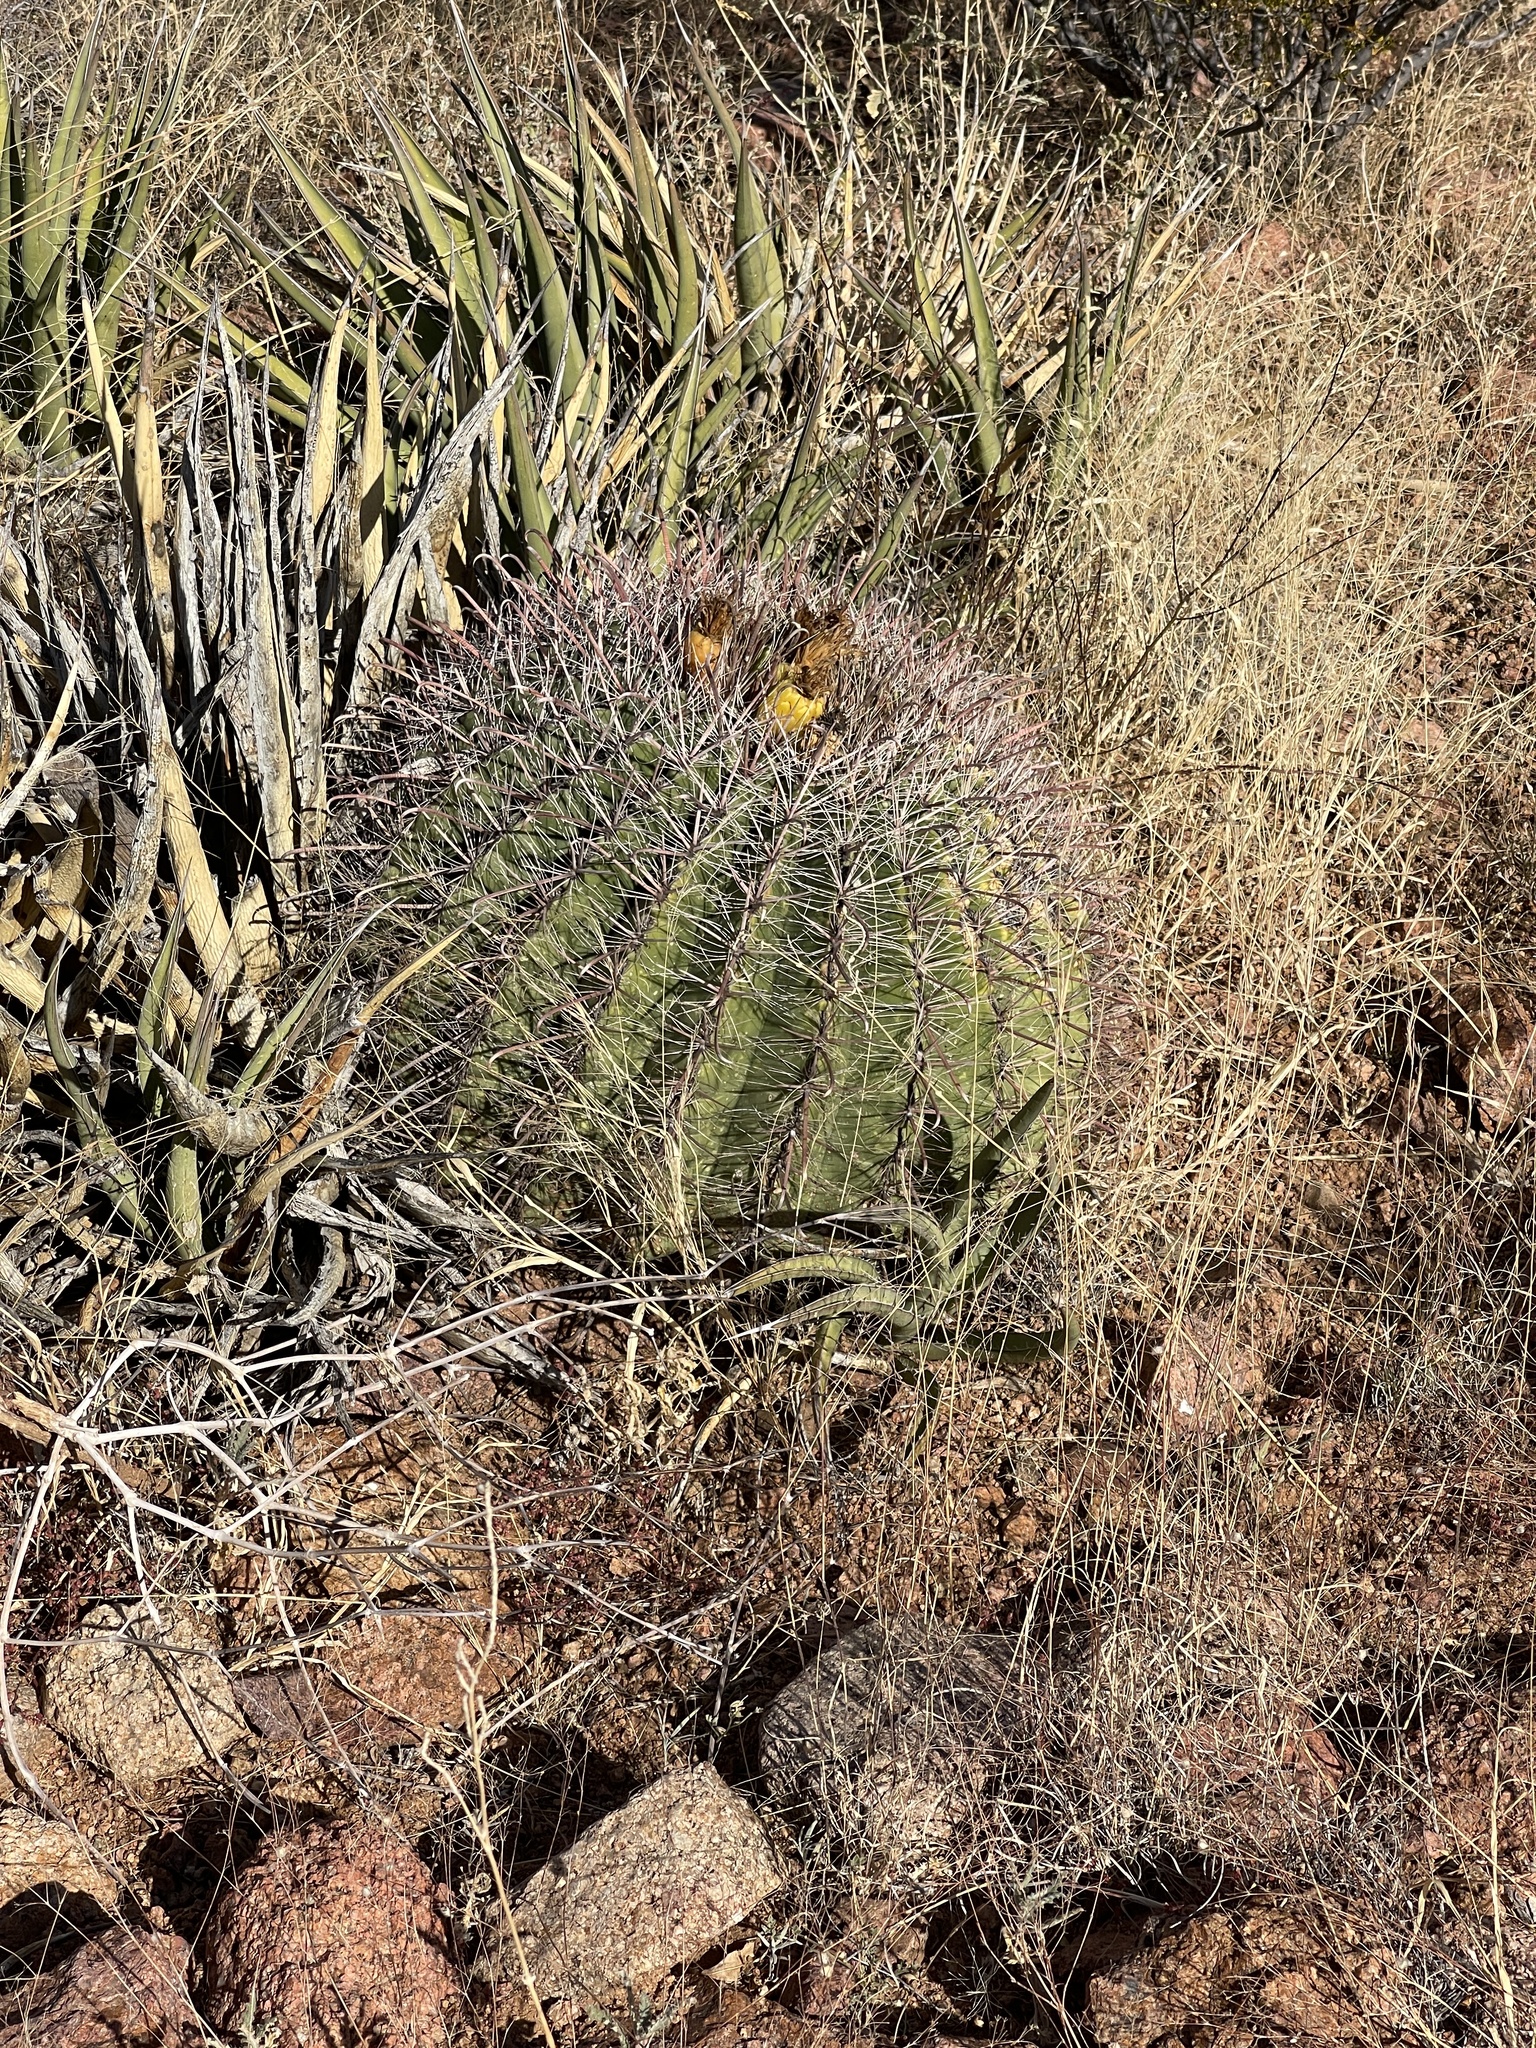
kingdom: Plantae
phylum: Tracheophyta
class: Magnoliopsida
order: Caryophyllales
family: Cactaceae
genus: Ferocactus
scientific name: Ferocactus wislizeni
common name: Candy barrel cactus
